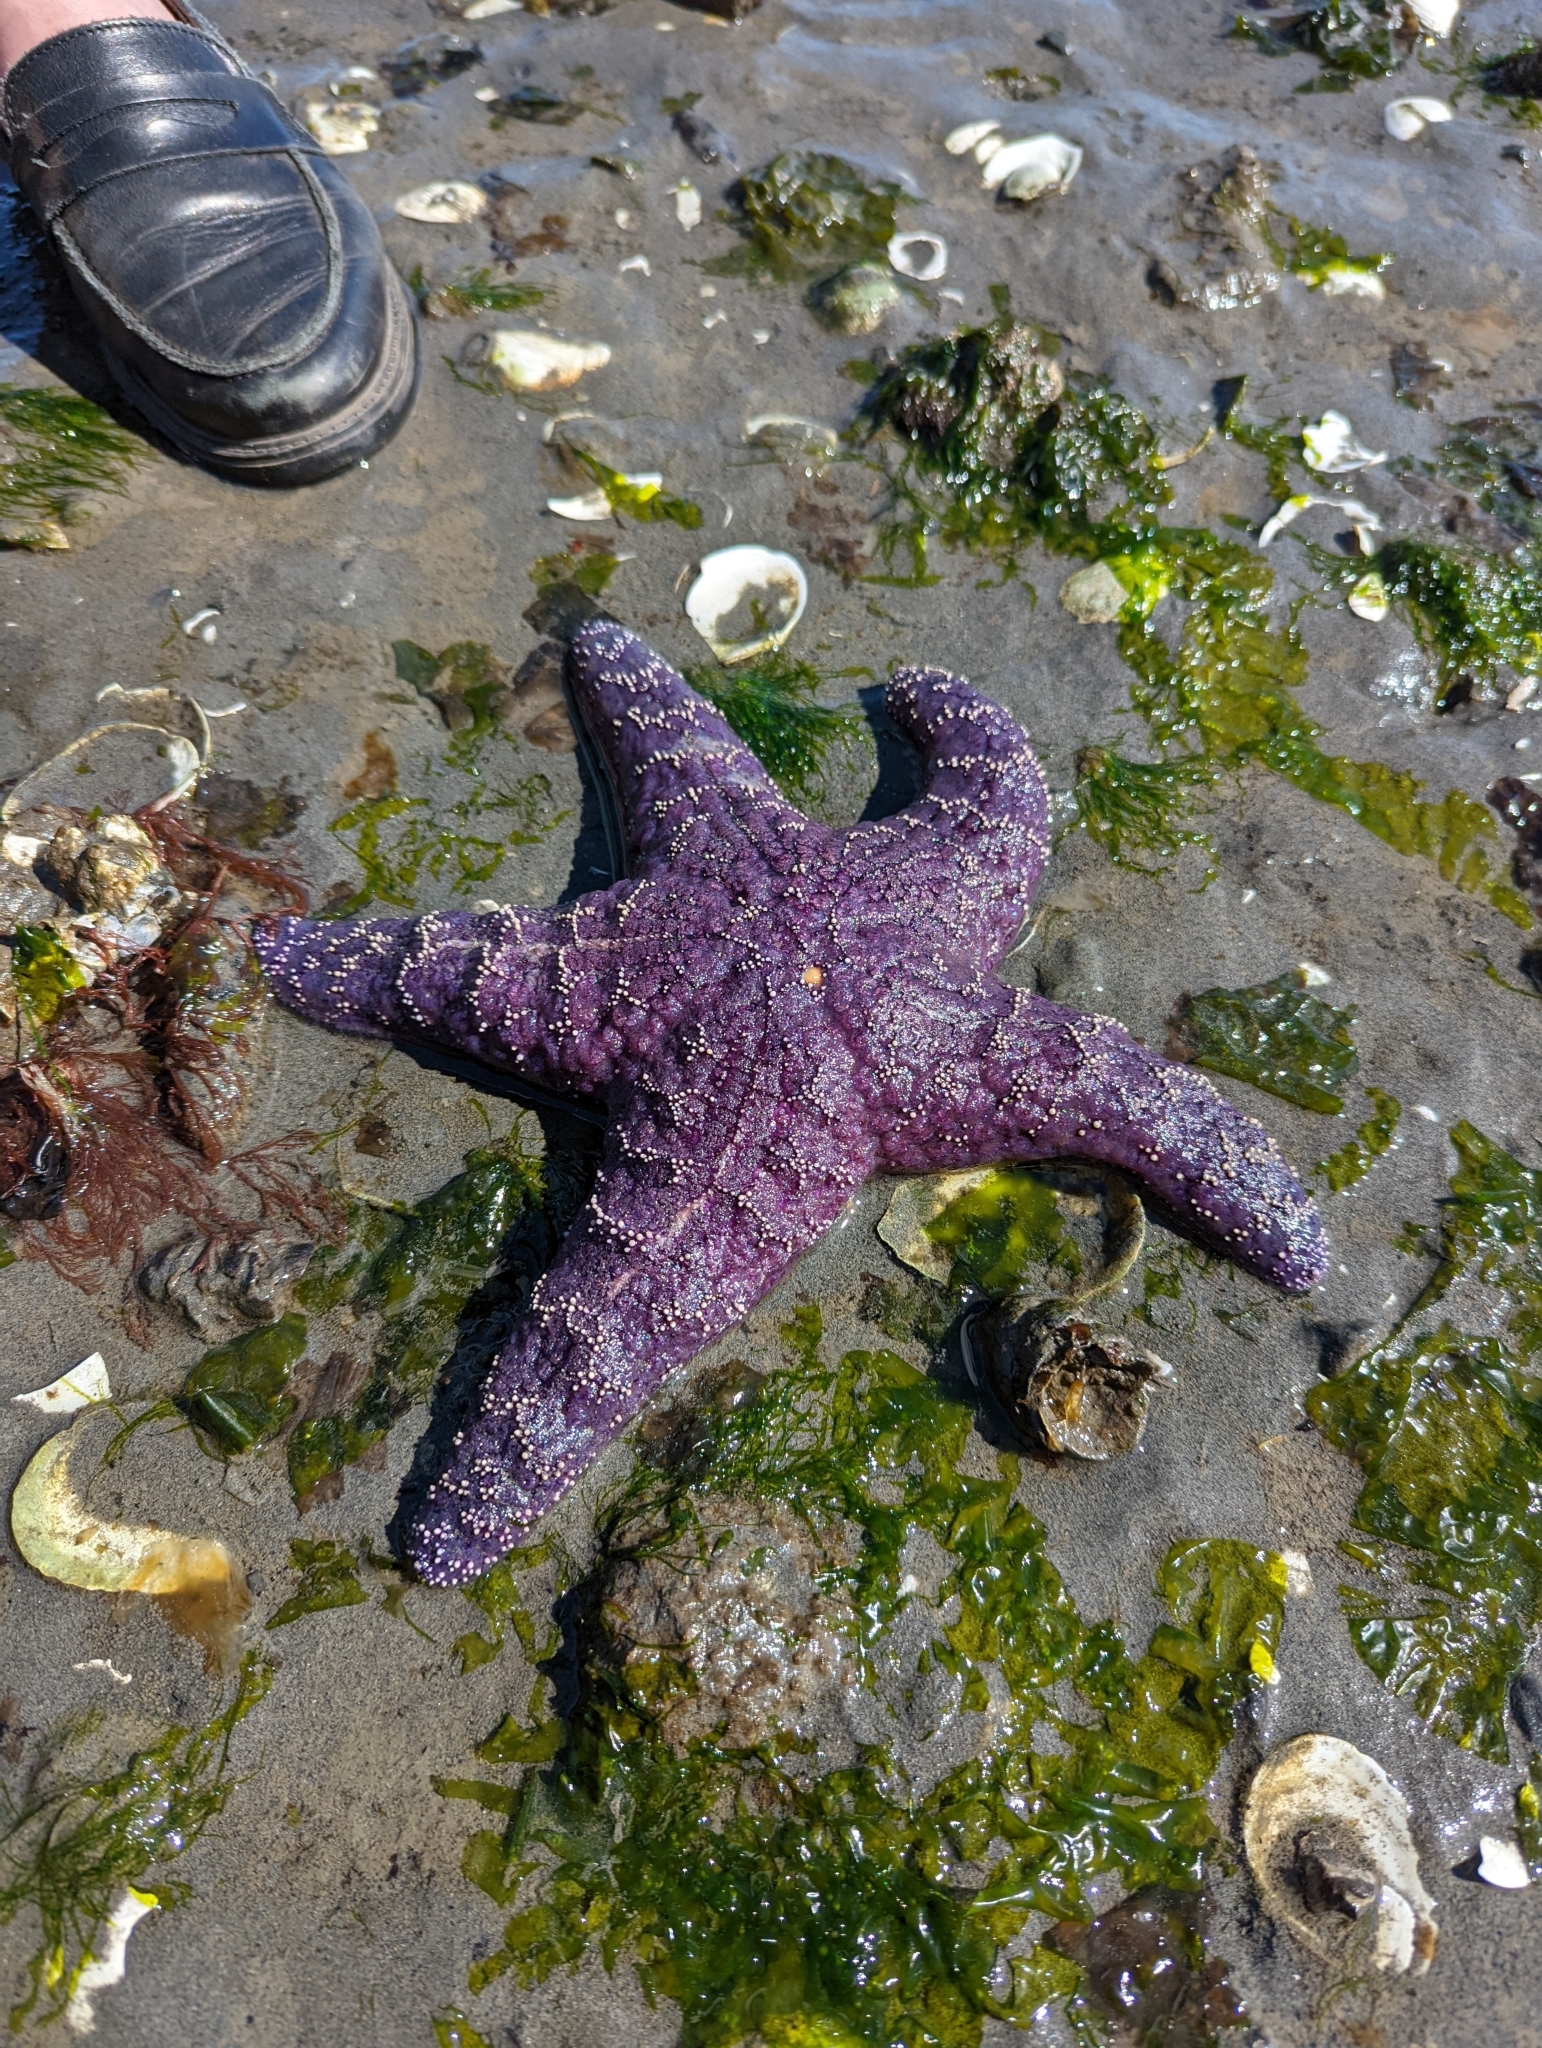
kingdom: Animalia
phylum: Echinodermata
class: Asteroidea
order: Forcipulatida
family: Asteriidae
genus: Pisaster
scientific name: Pisaster ochraceus
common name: Ochre stars
